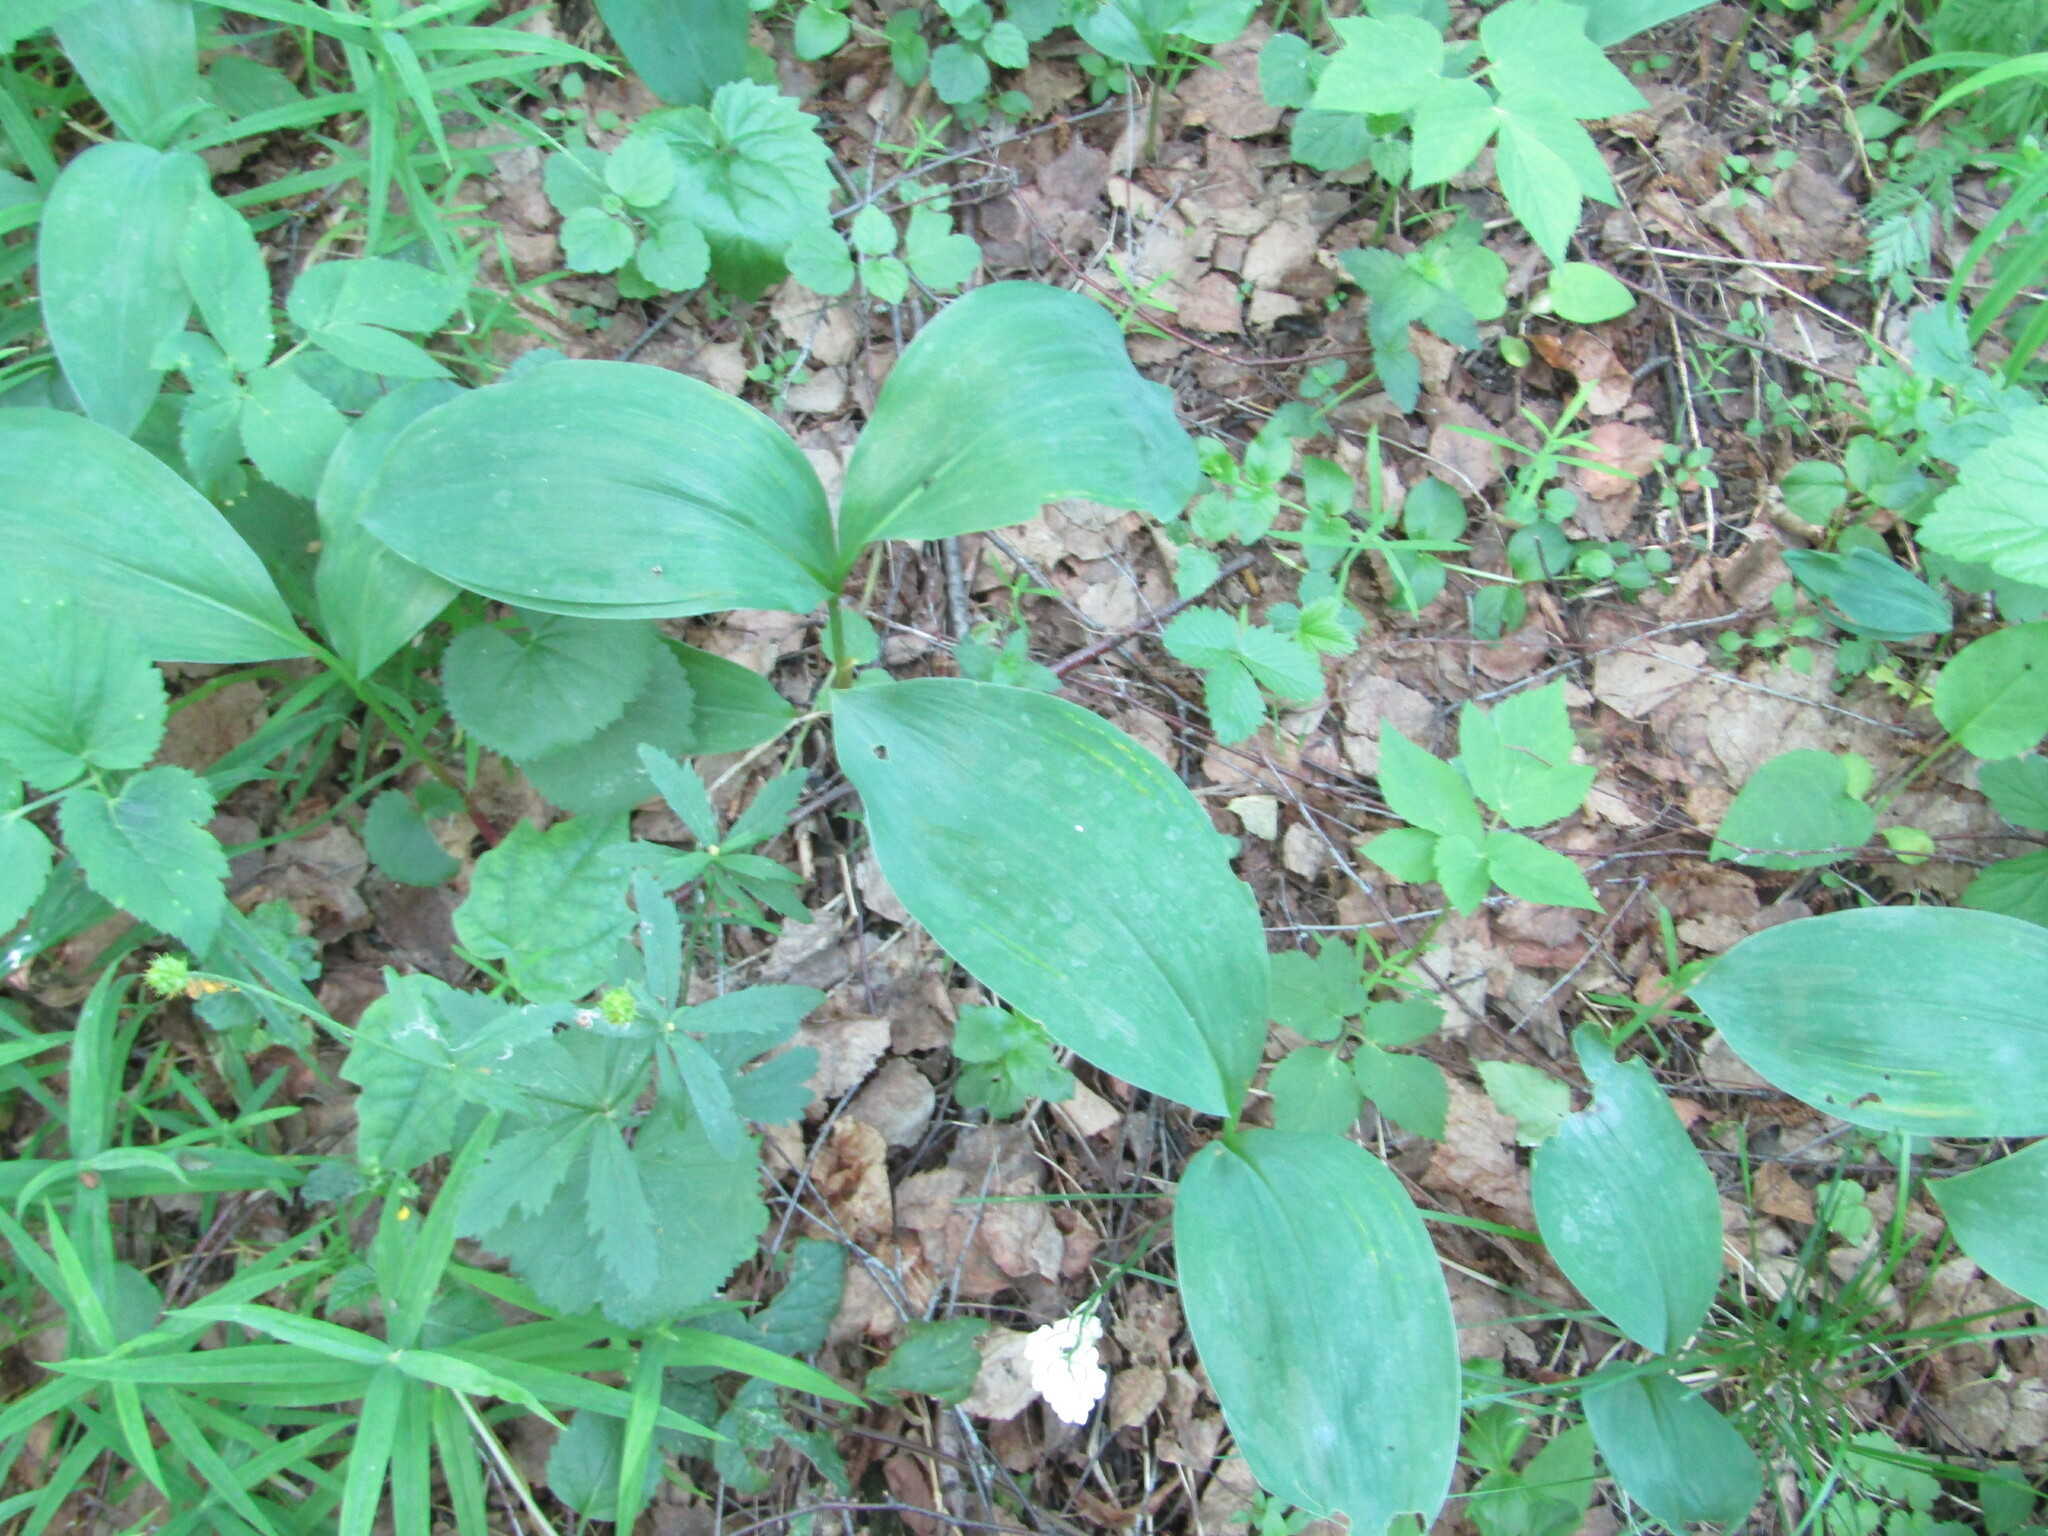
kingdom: Plantae
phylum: Tracheophyta
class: Liliopsida
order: Asparagales
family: Asparagaceae
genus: Convallaria
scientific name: Convallaria majalis
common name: Lily-of-the-valley
